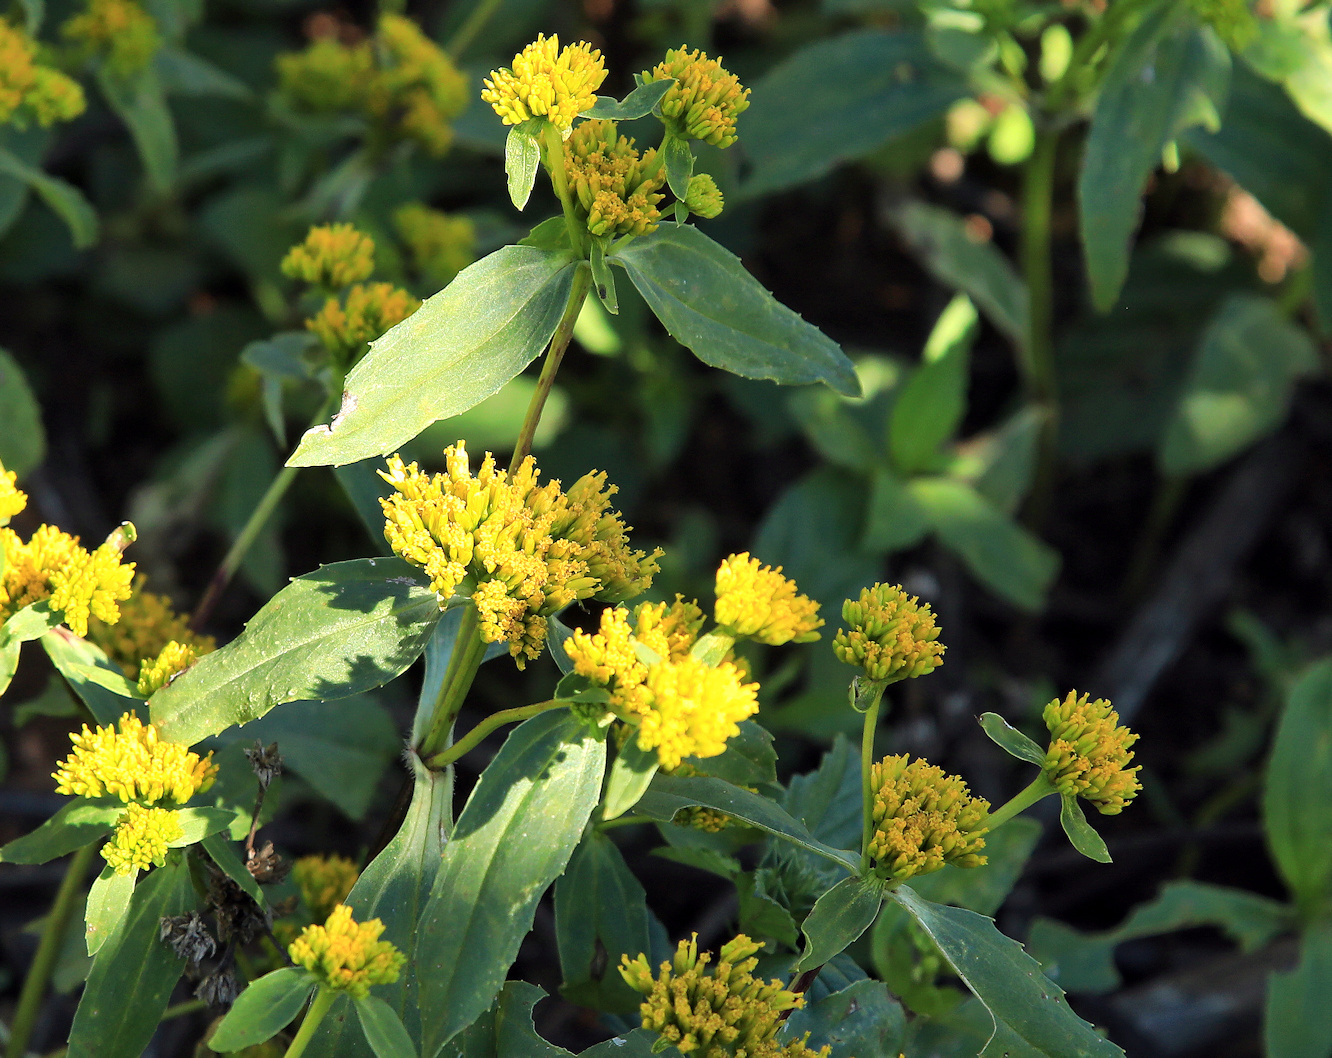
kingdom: Plantae
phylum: Tracheophyta
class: Magnoliopsida
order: Asterales
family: Asteraceae
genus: Flaveria
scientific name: Flaveria bidentis
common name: Coastal plain yellowtops
